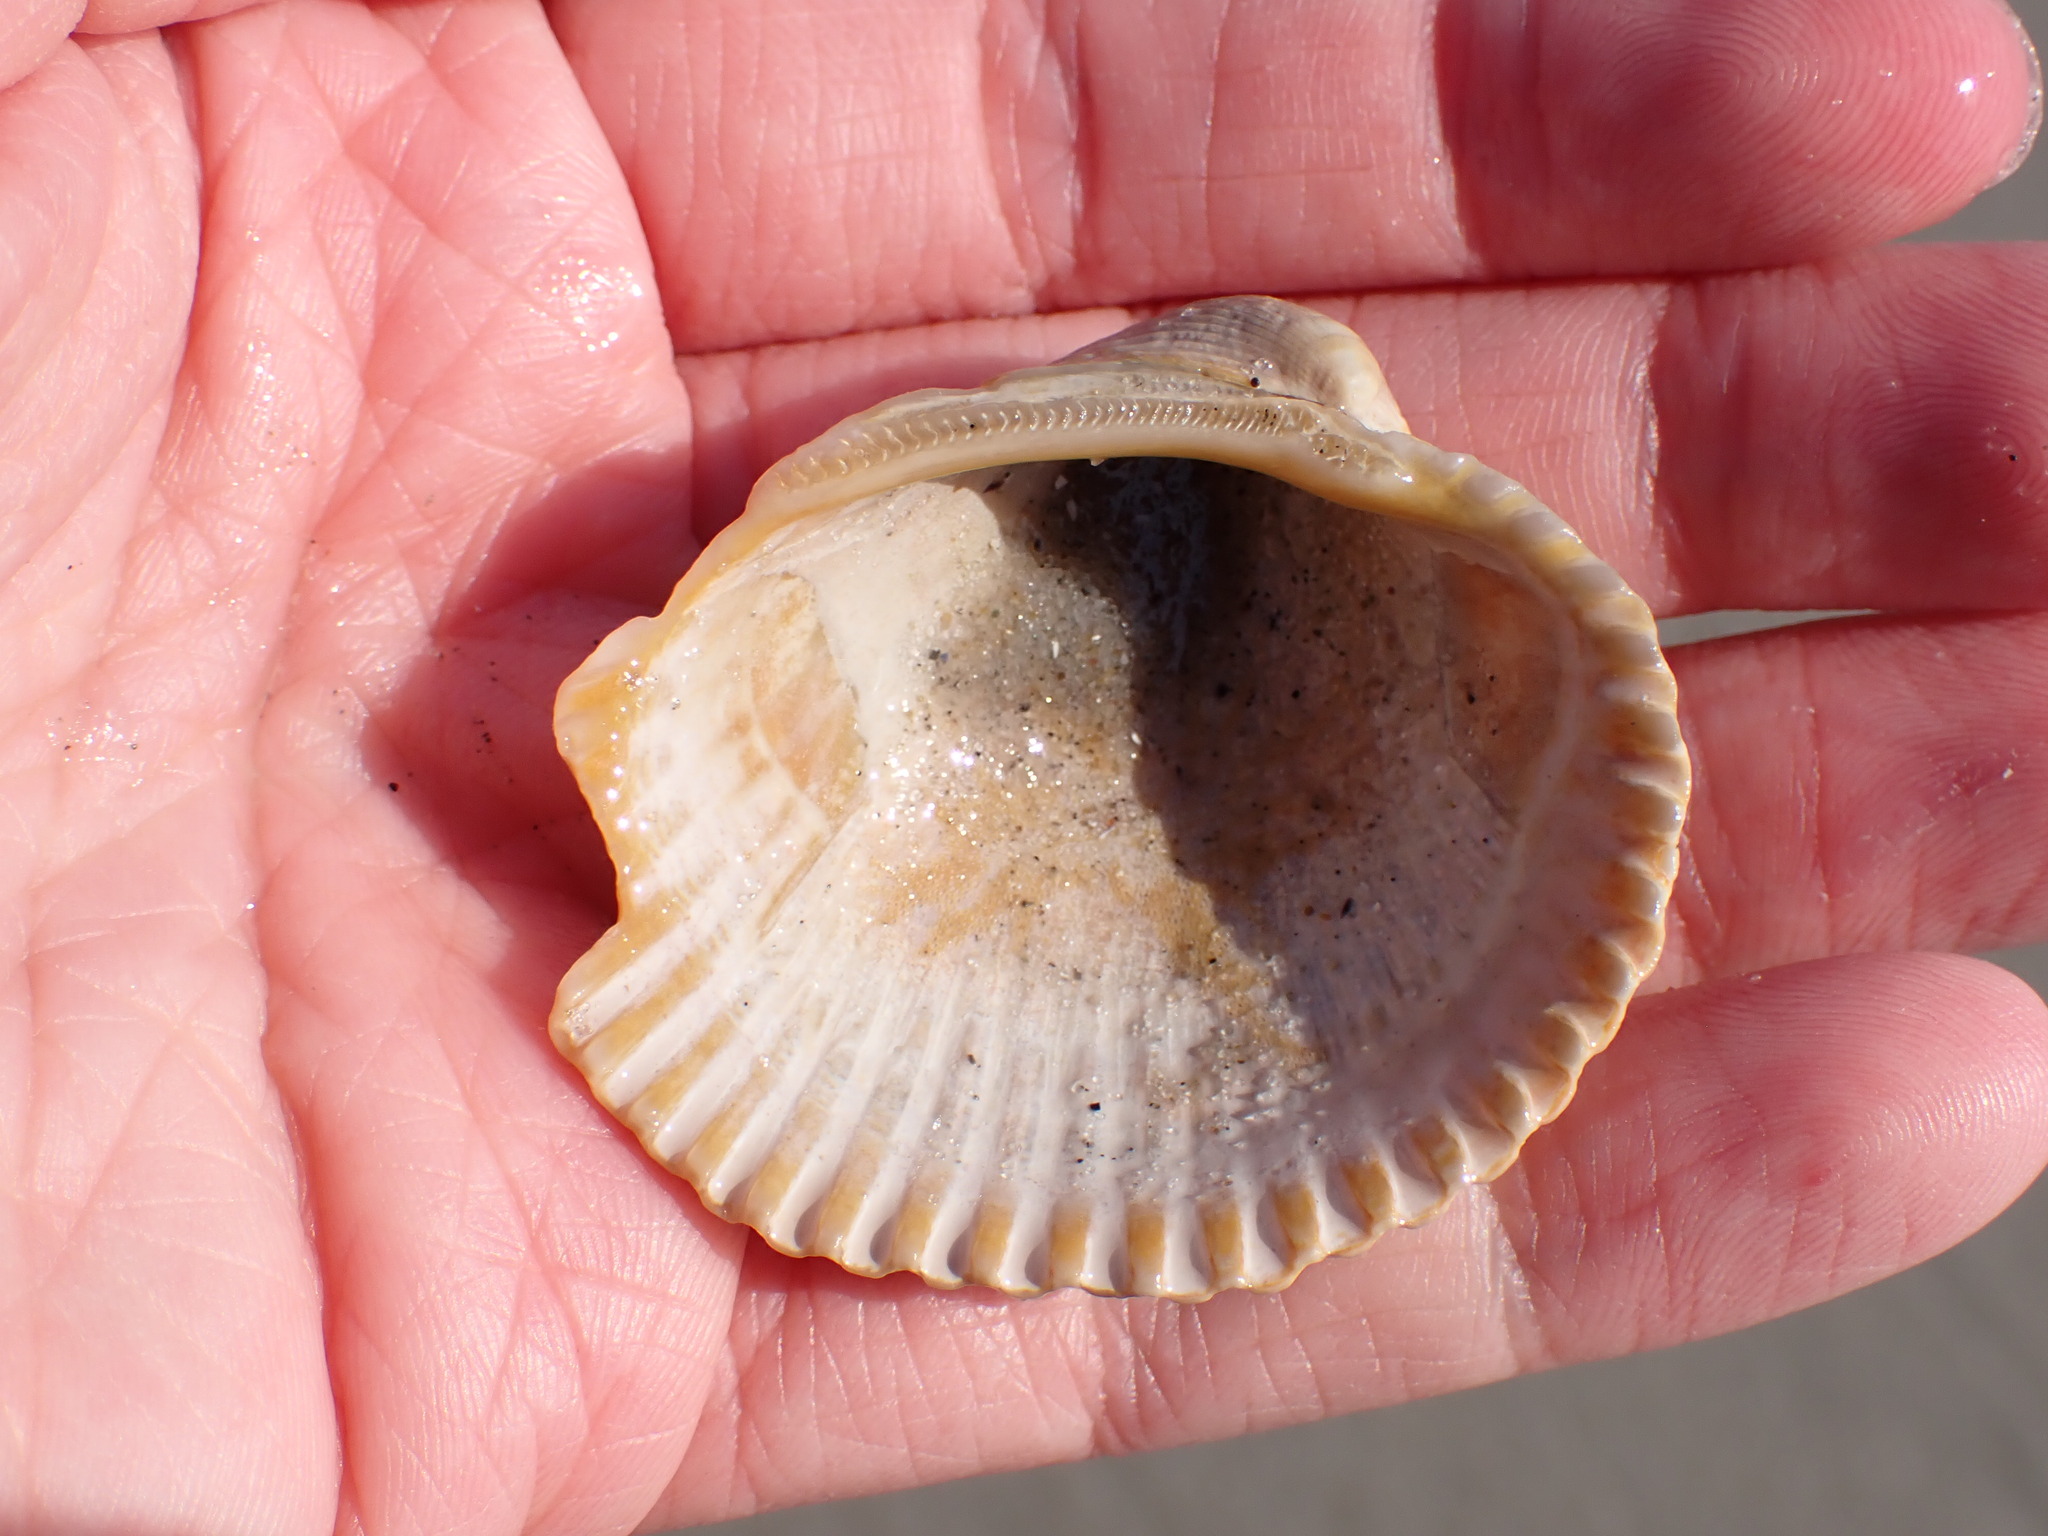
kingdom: Animalia
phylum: Mollusca
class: Bivalvia
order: Arcida
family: Arcidae
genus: Lunarca
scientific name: Lunarca ovalis
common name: Blood ark
